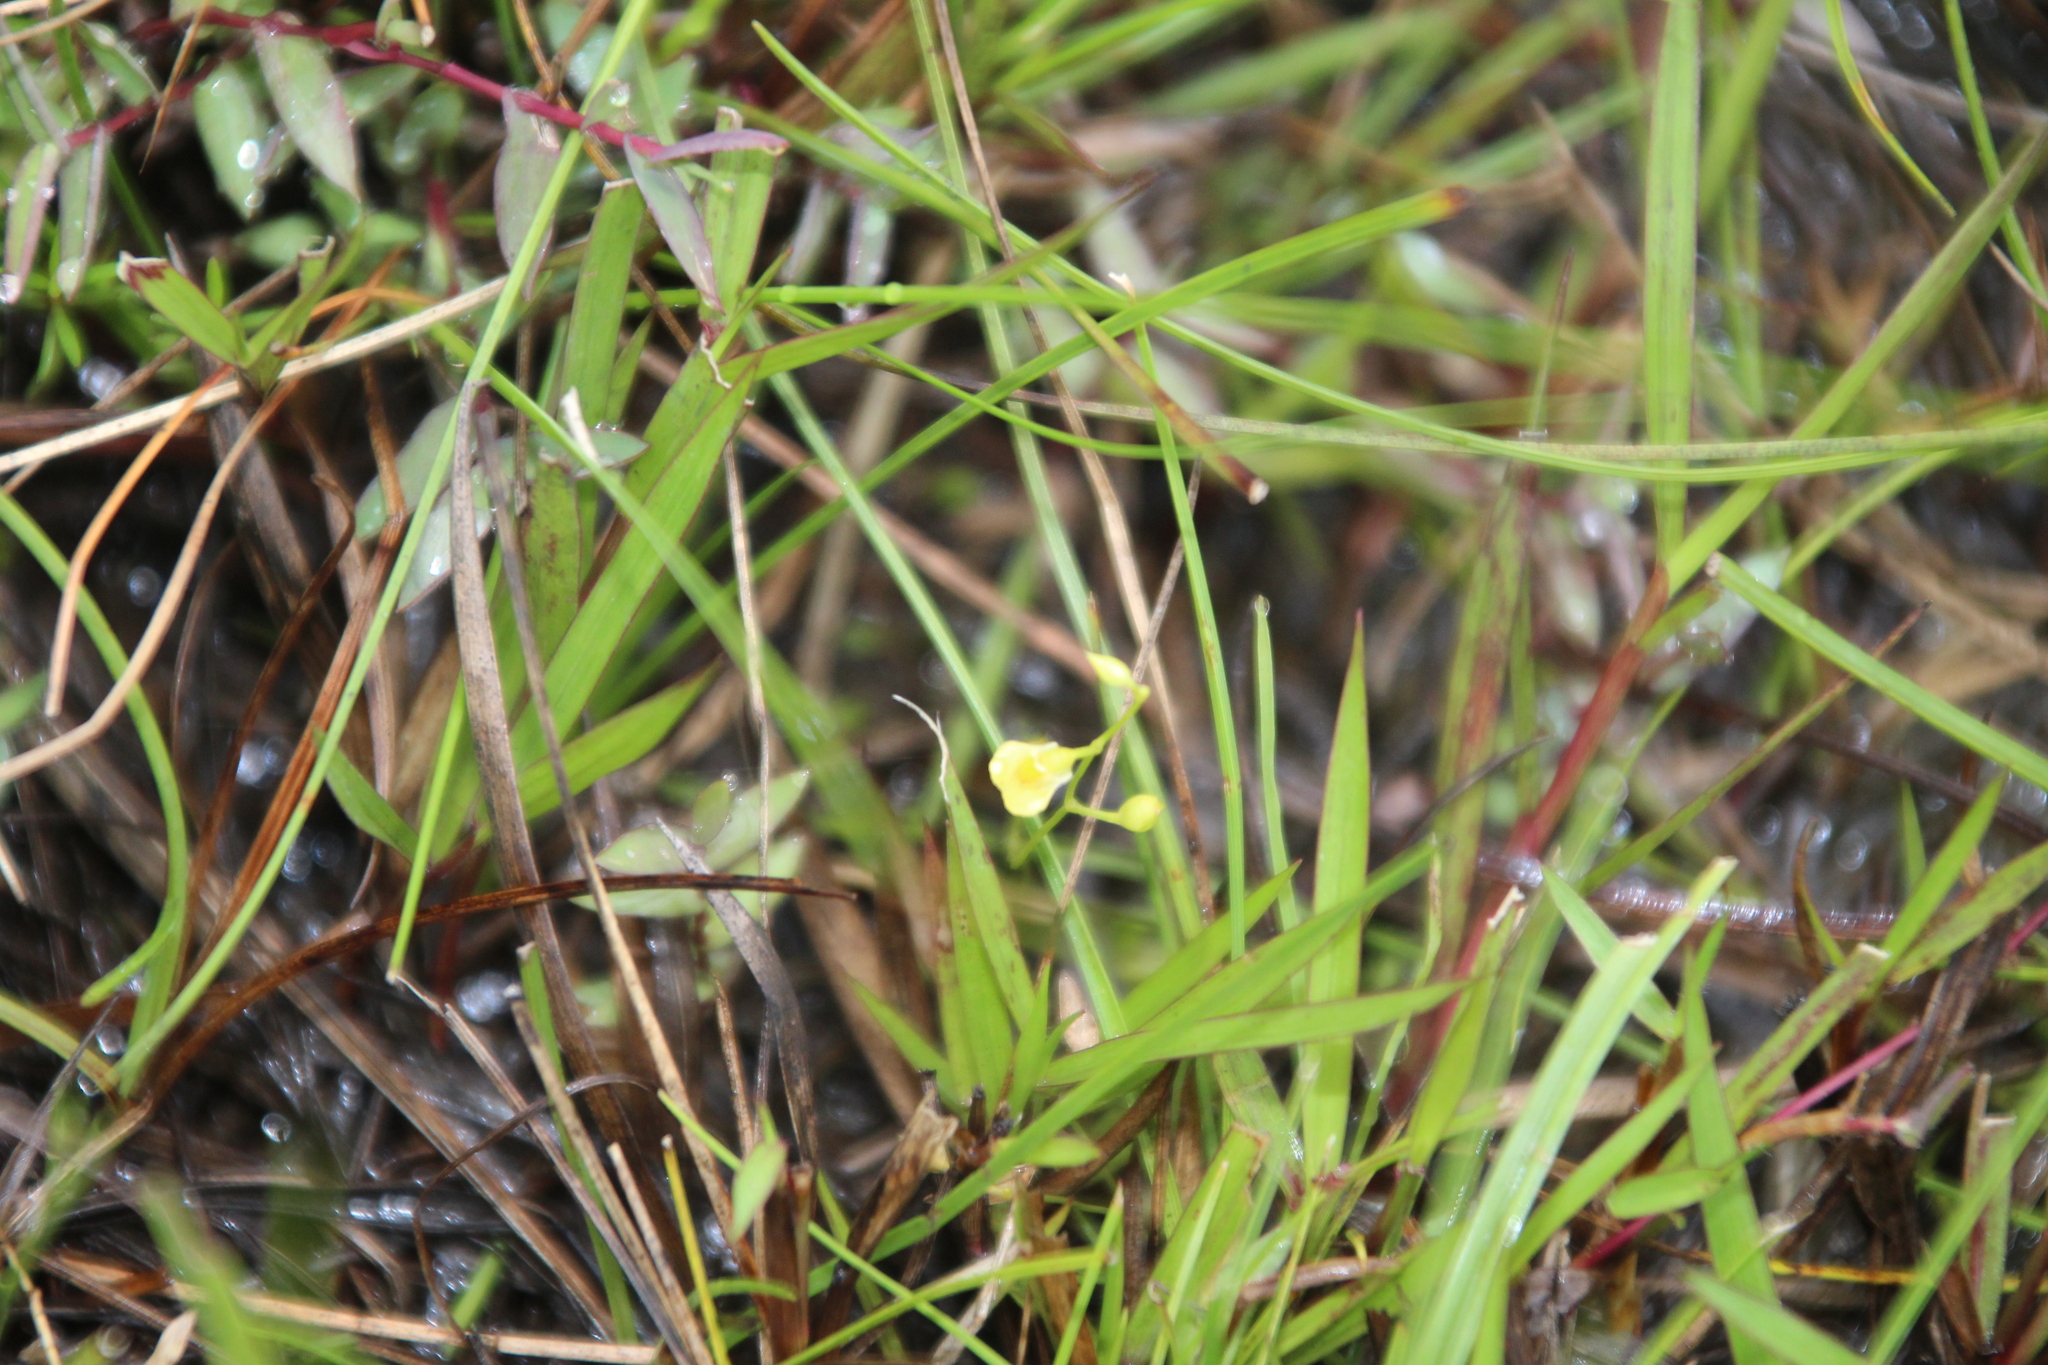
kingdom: Plantae
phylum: Tracheophyta
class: Magnoliopsida
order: Lamiales
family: Lentibulariaceae
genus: Utricularia
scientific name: Utricularia andongensis
